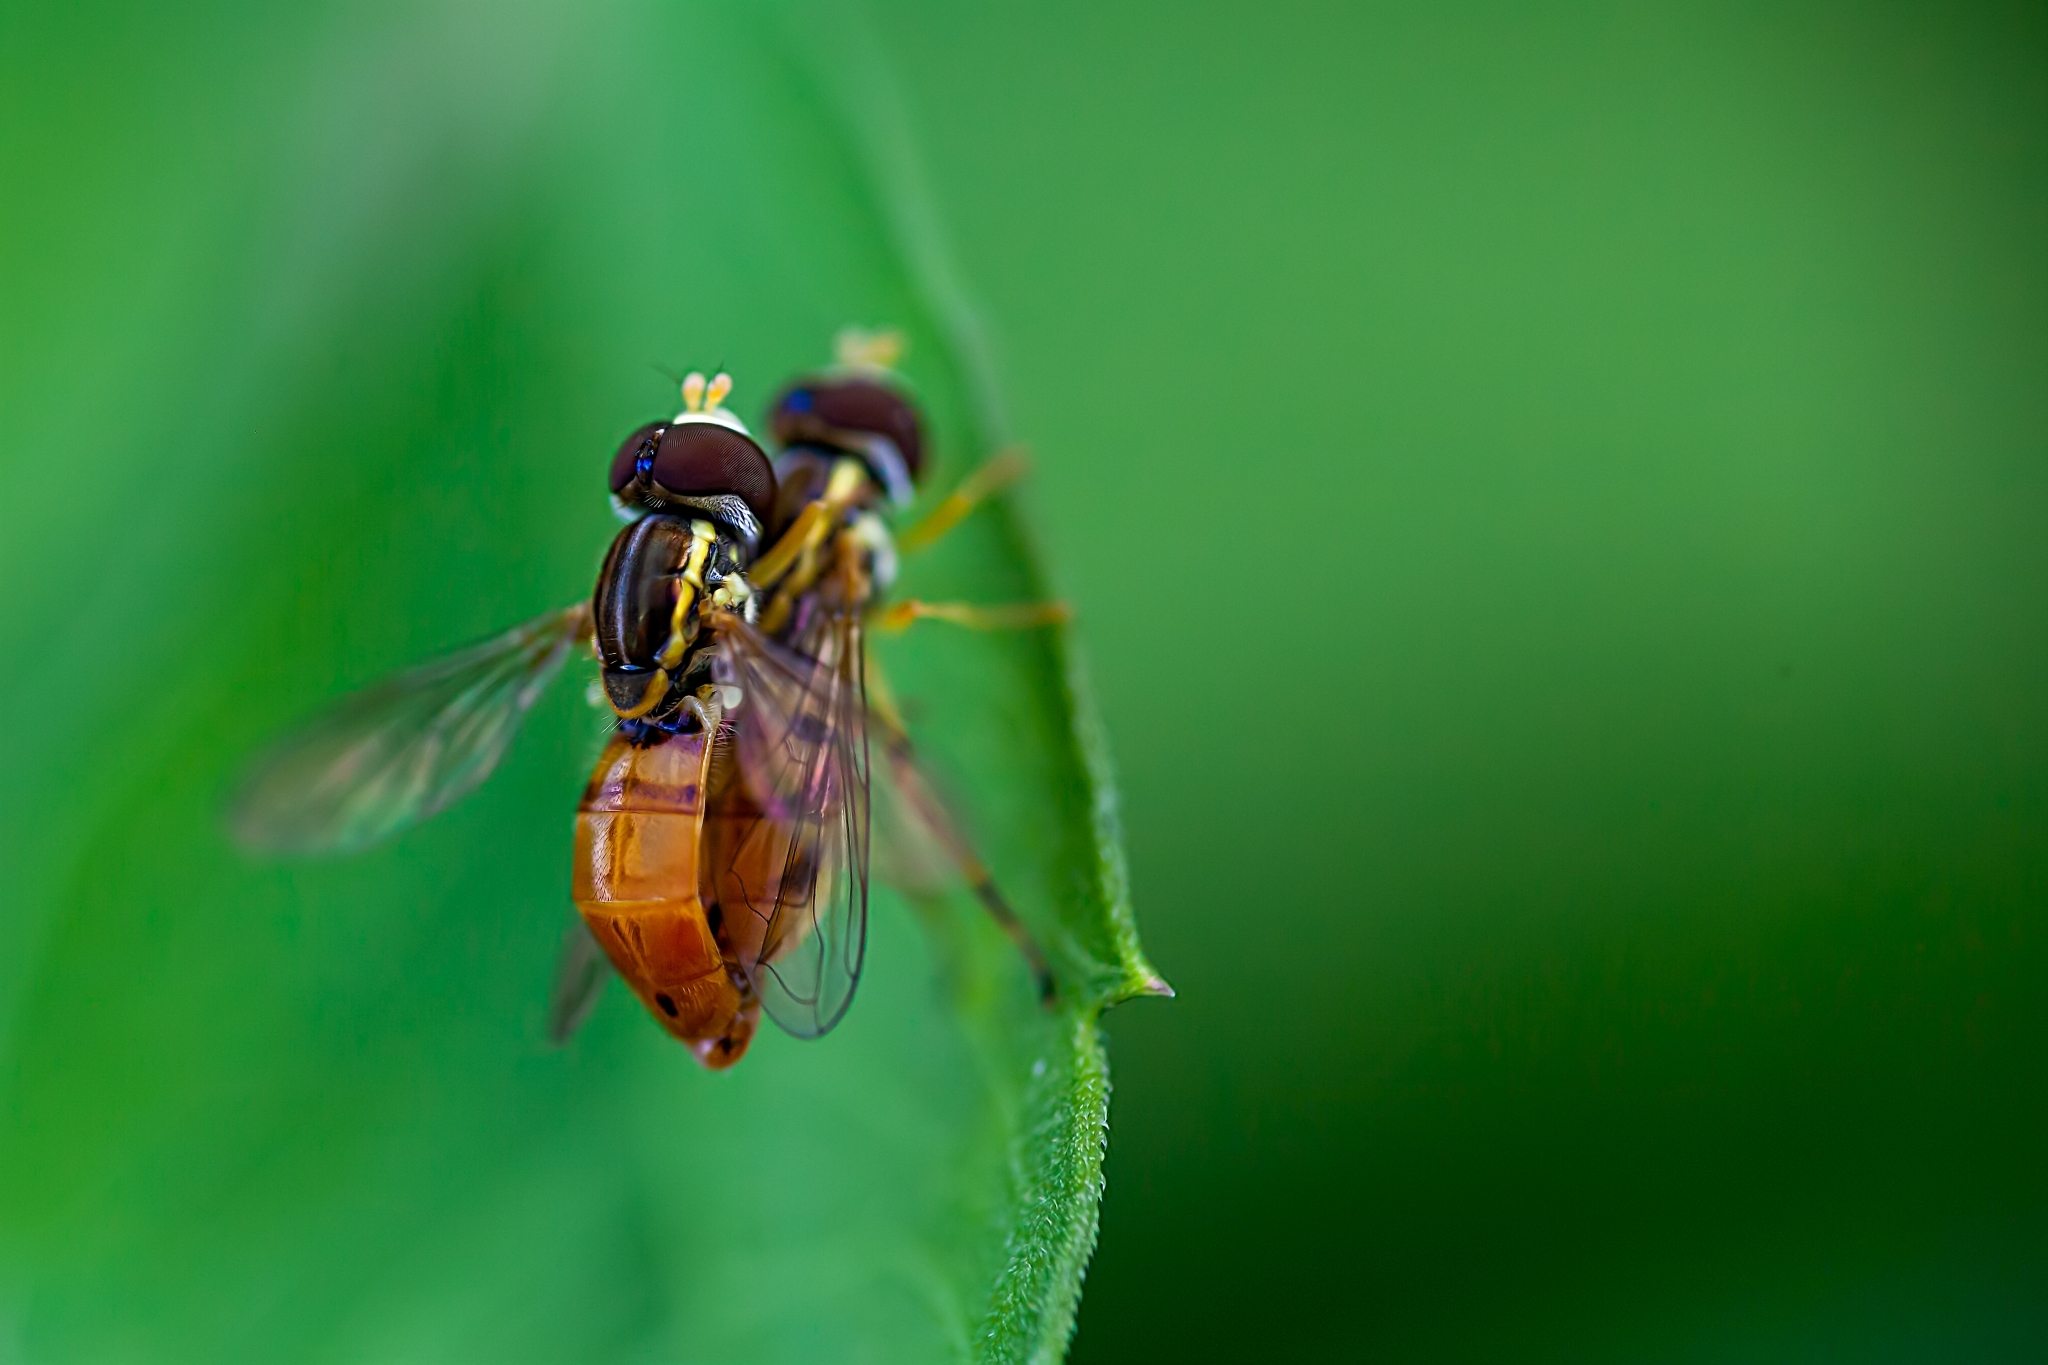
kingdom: Animalia
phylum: Arthropoda
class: Insecta
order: Diptera
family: Syrphidae
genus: Toxomerus
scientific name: Toxomerus floralis
